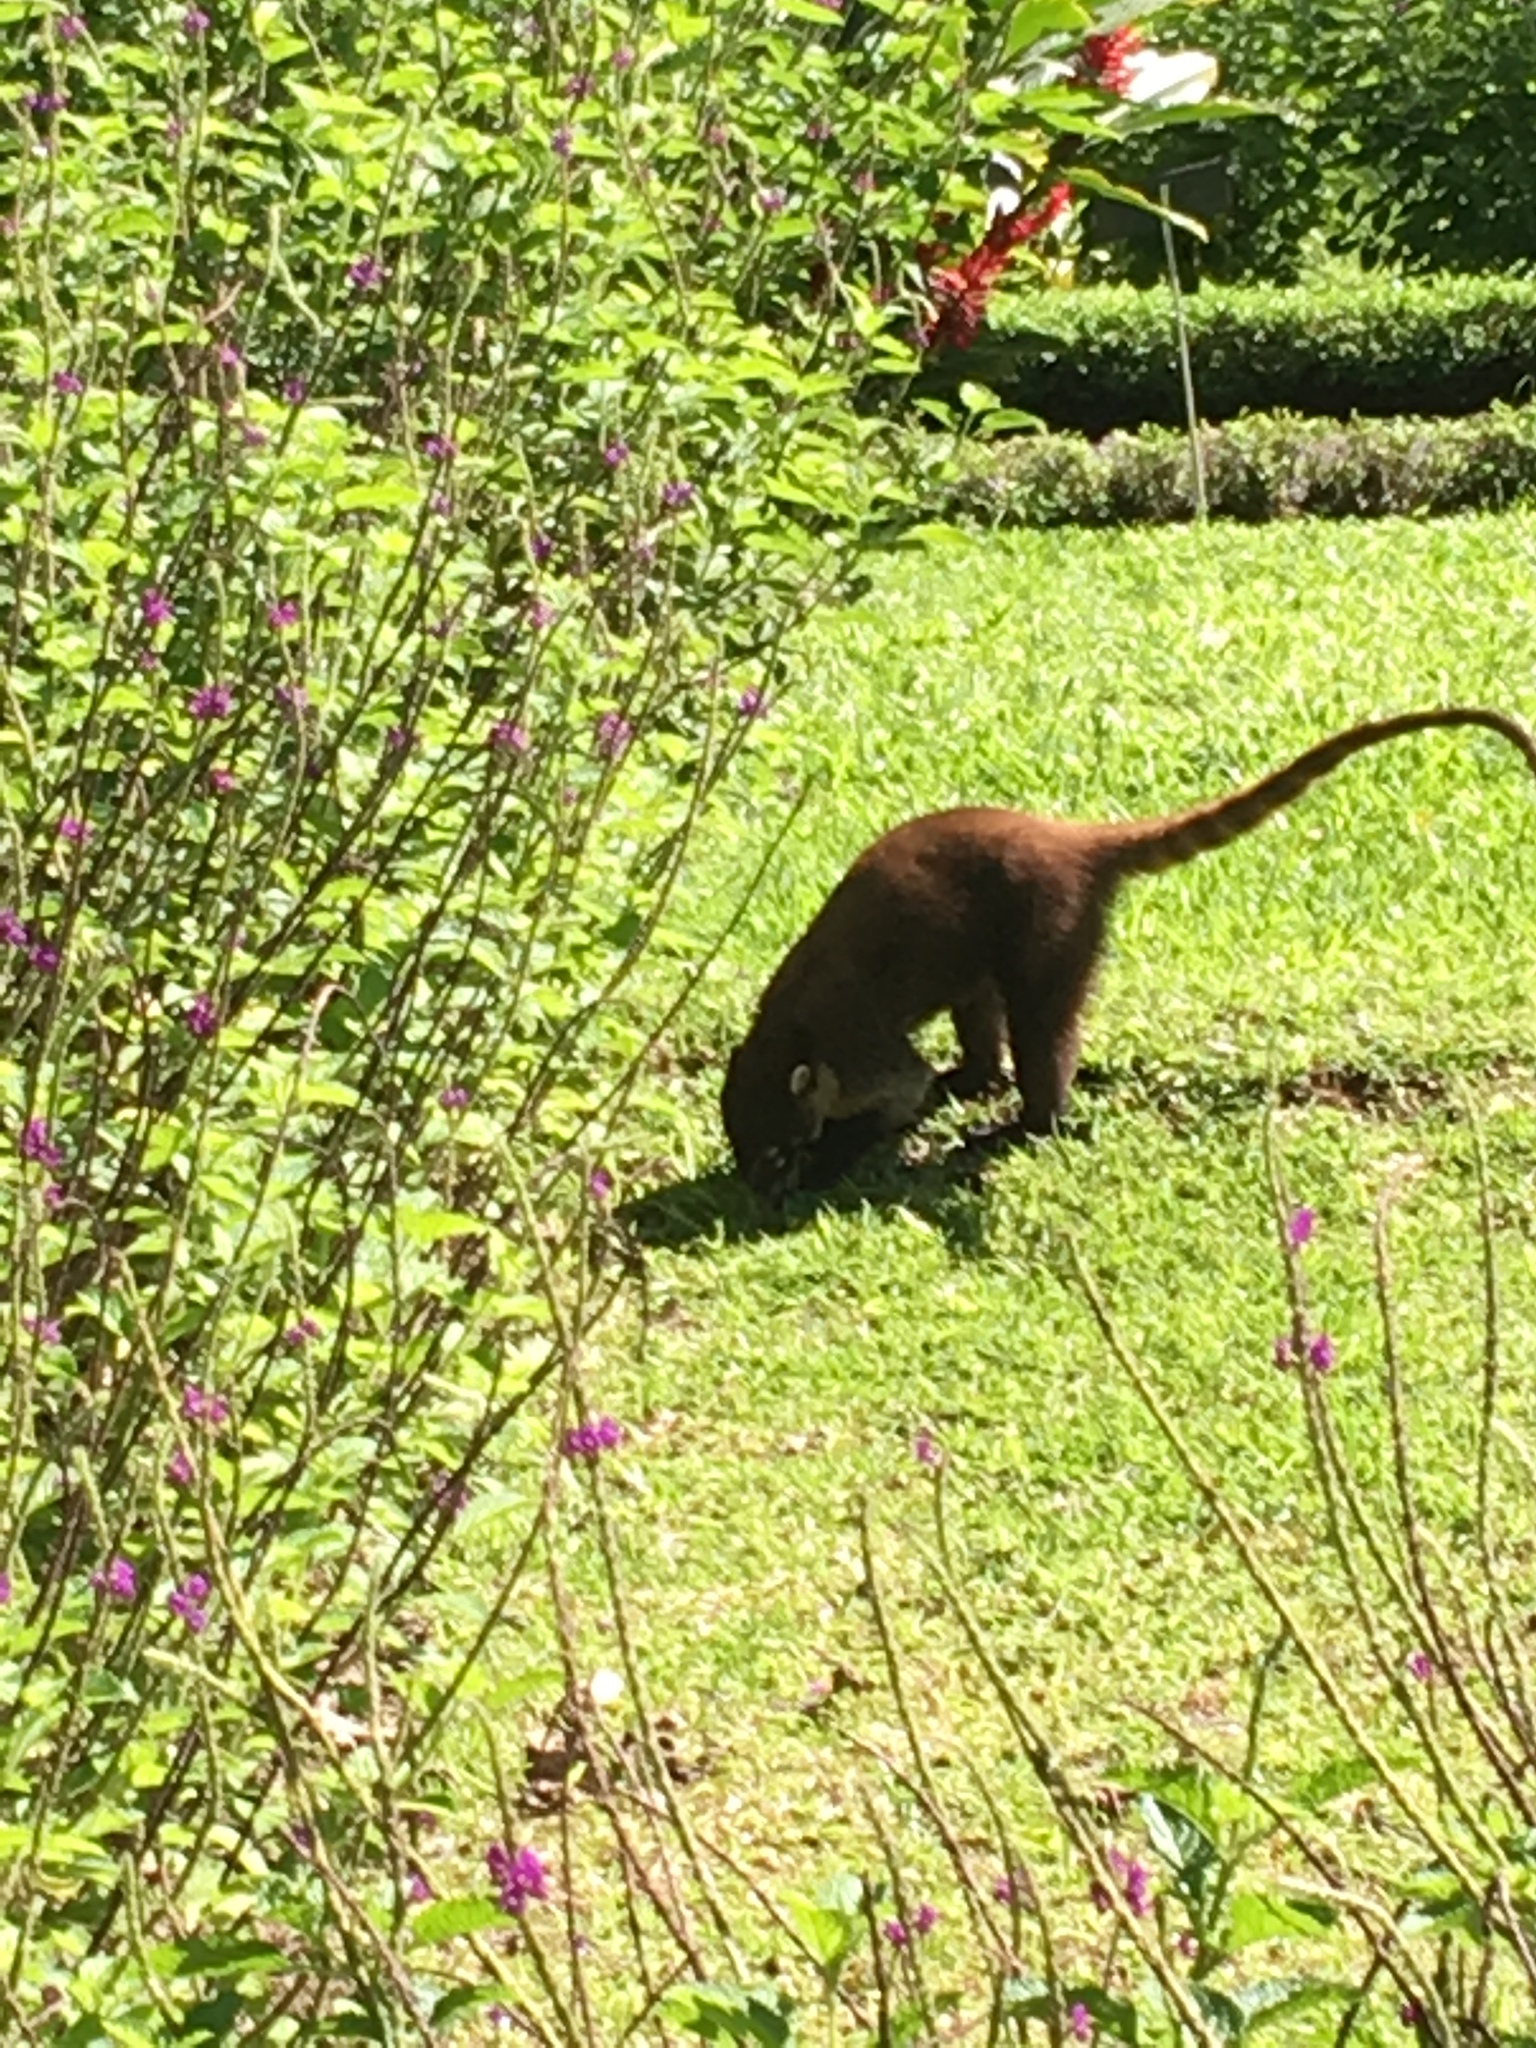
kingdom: Animalia
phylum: Chordata
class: Mammalia
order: Carnivora
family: Procyonidae
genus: Nasua
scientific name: Nasua narica
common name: White-nosed coati
